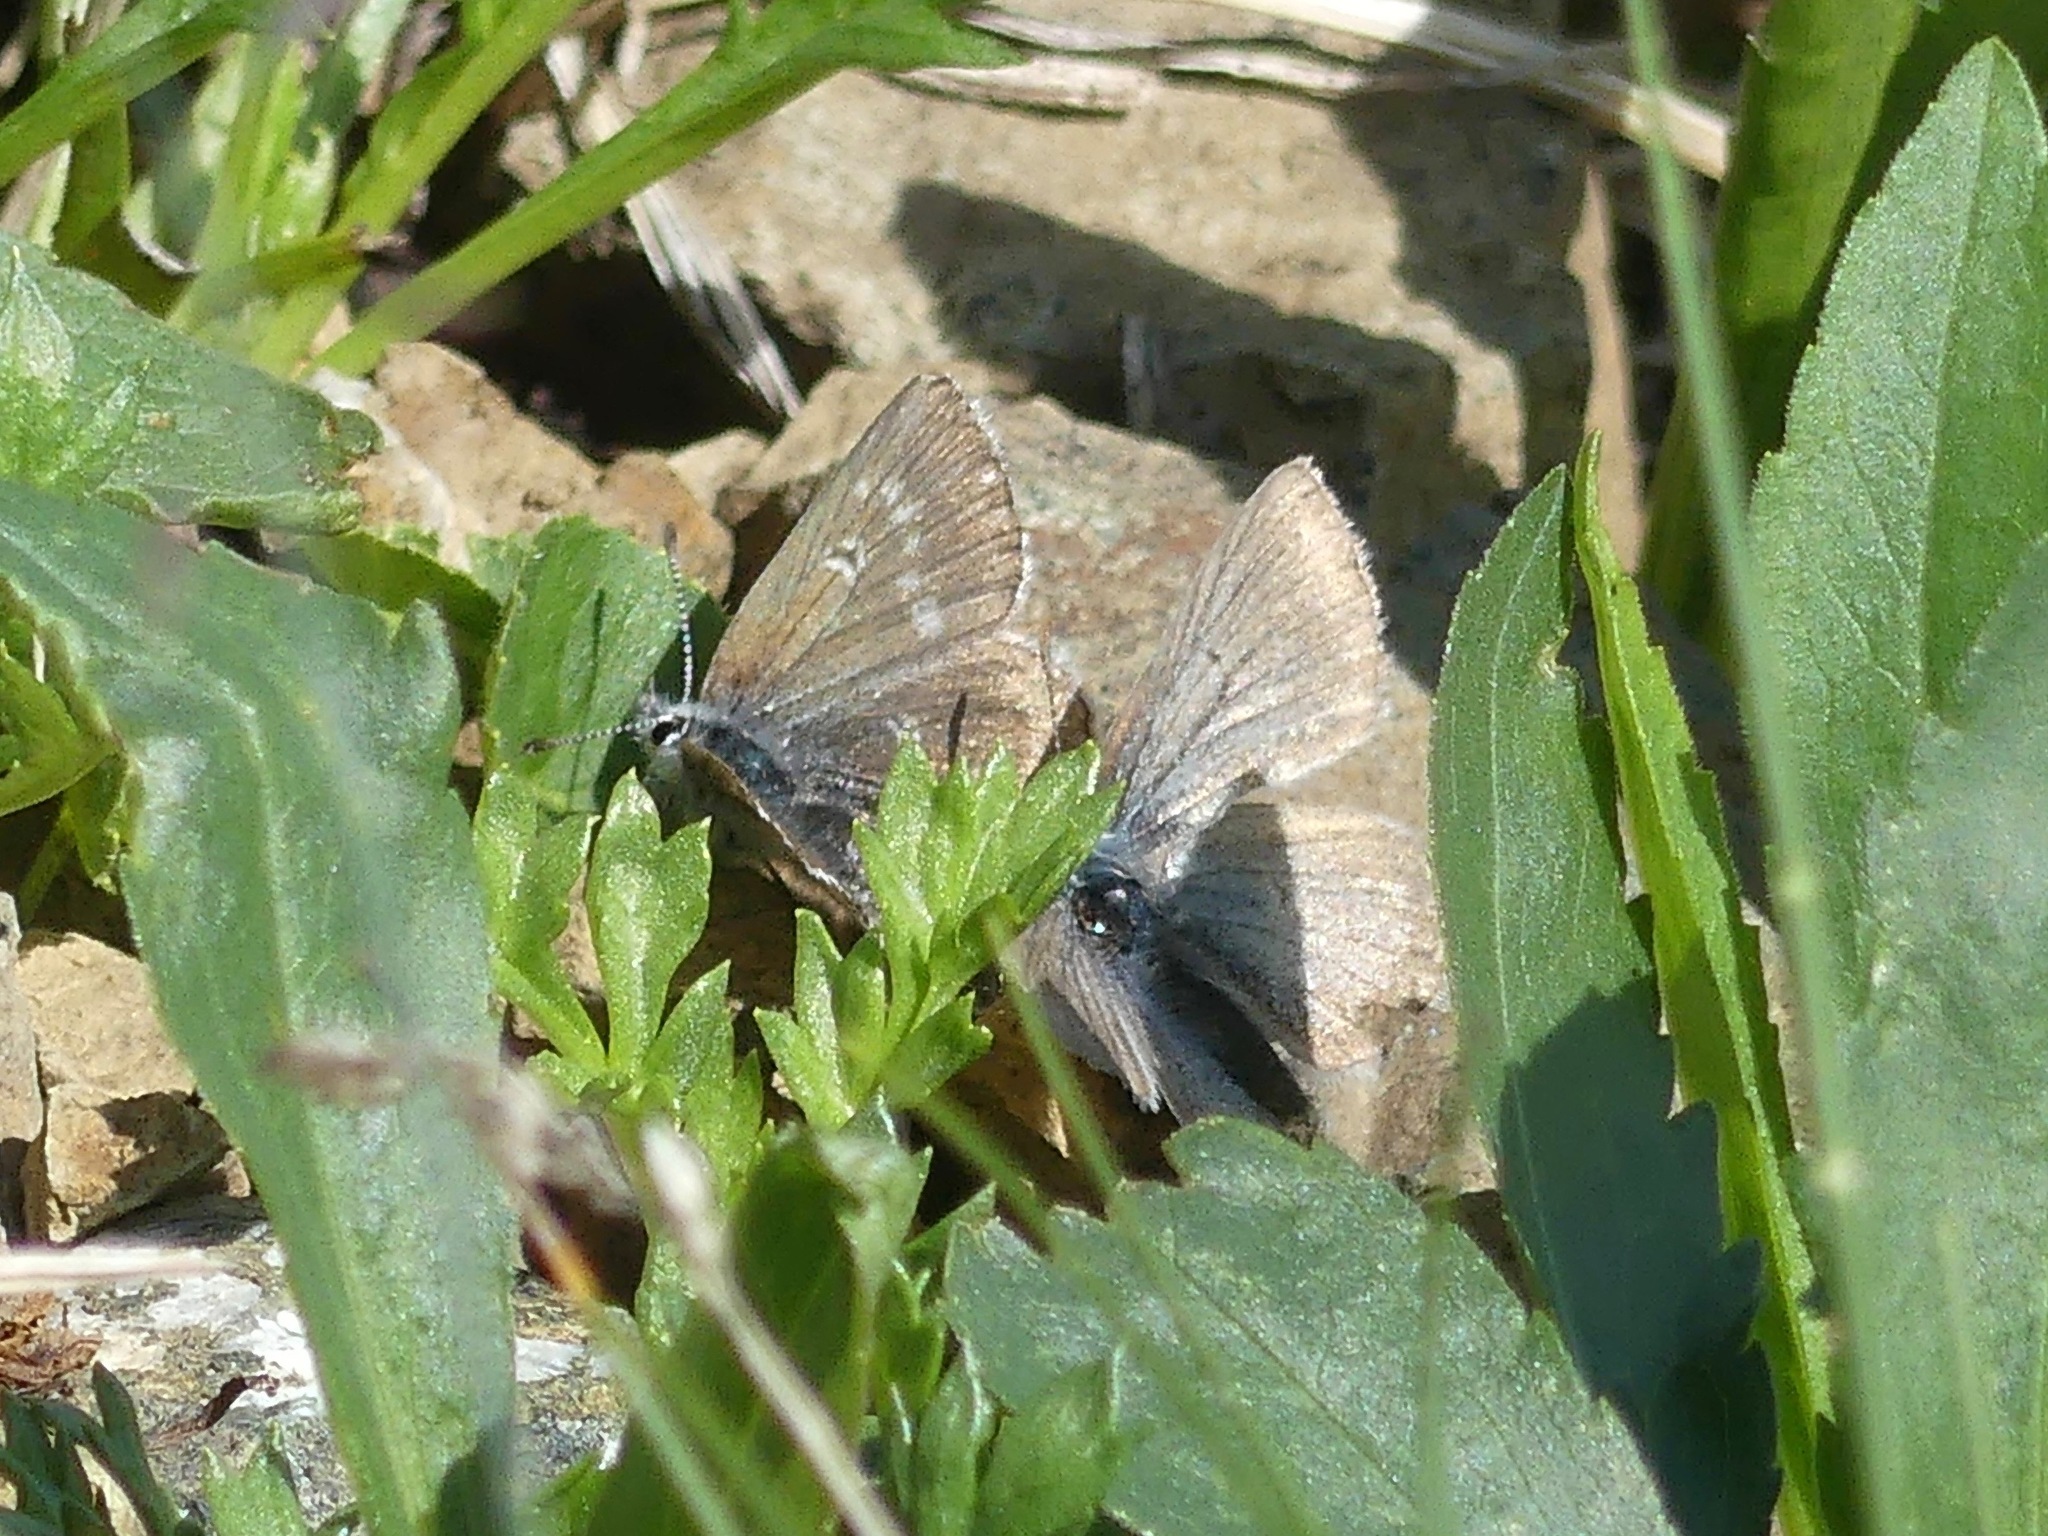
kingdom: Animalia
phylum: Arthropoda
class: Insecta
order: Lepidoptera
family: Lycaenidae
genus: Agriades
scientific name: Agriades glandon
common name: Glandon blue
